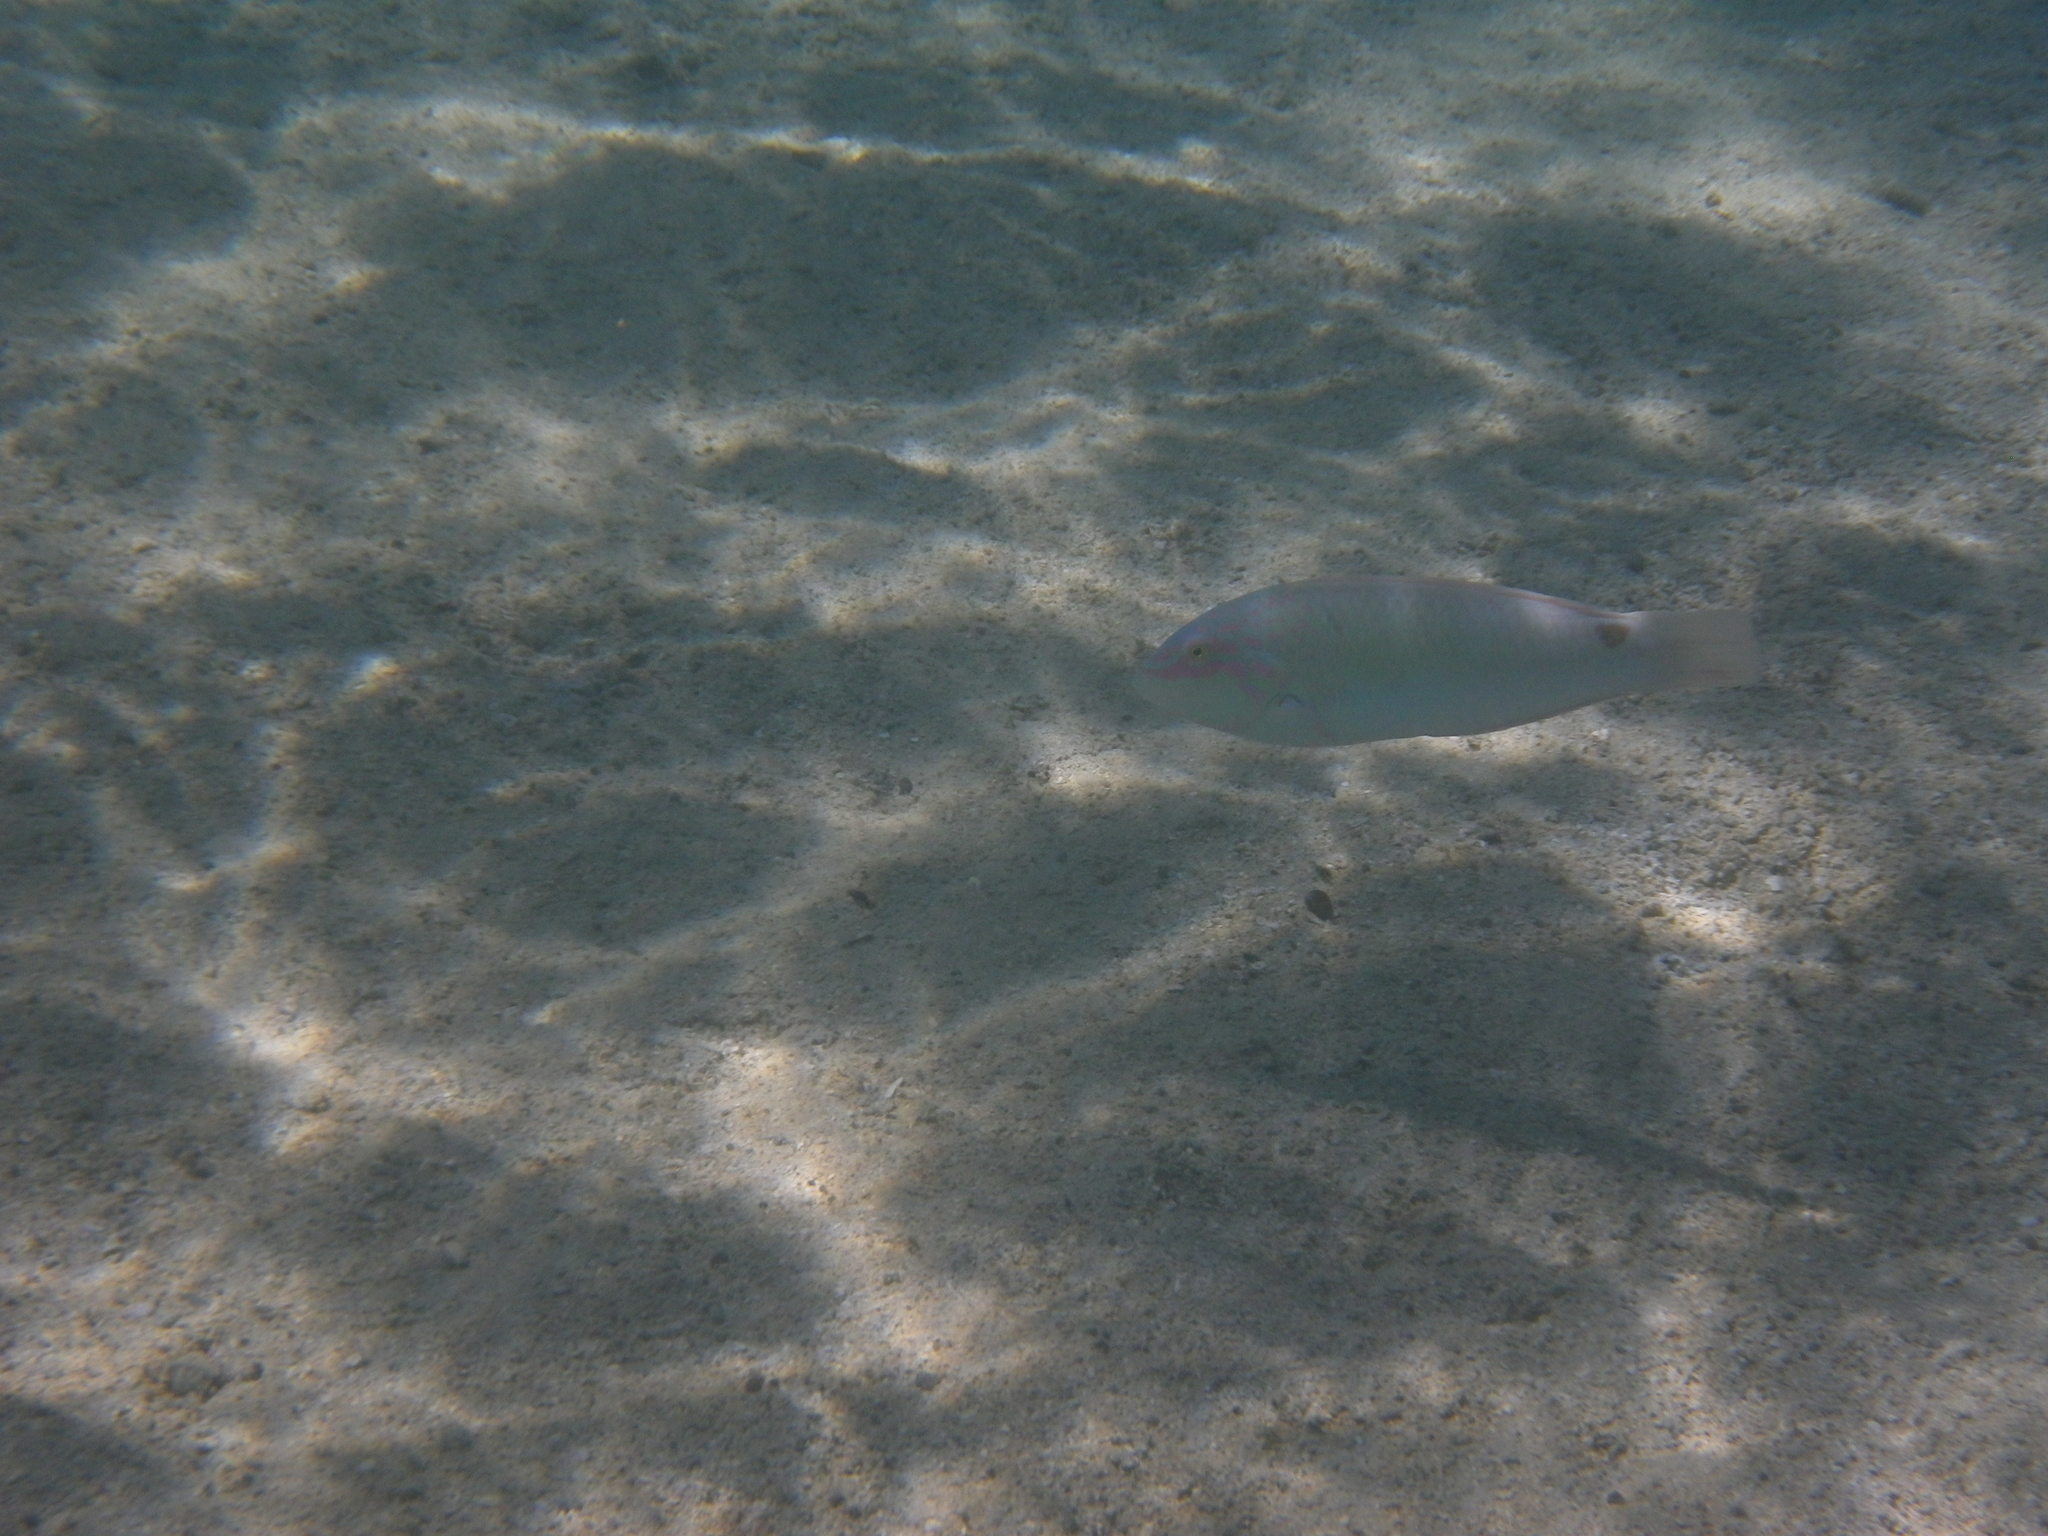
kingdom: Animalia
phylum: Chordata
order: Perciformes
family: Labridae
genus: Halichoeres
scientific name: Halichoeres trimaculatus
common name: Three-spot wrasse
